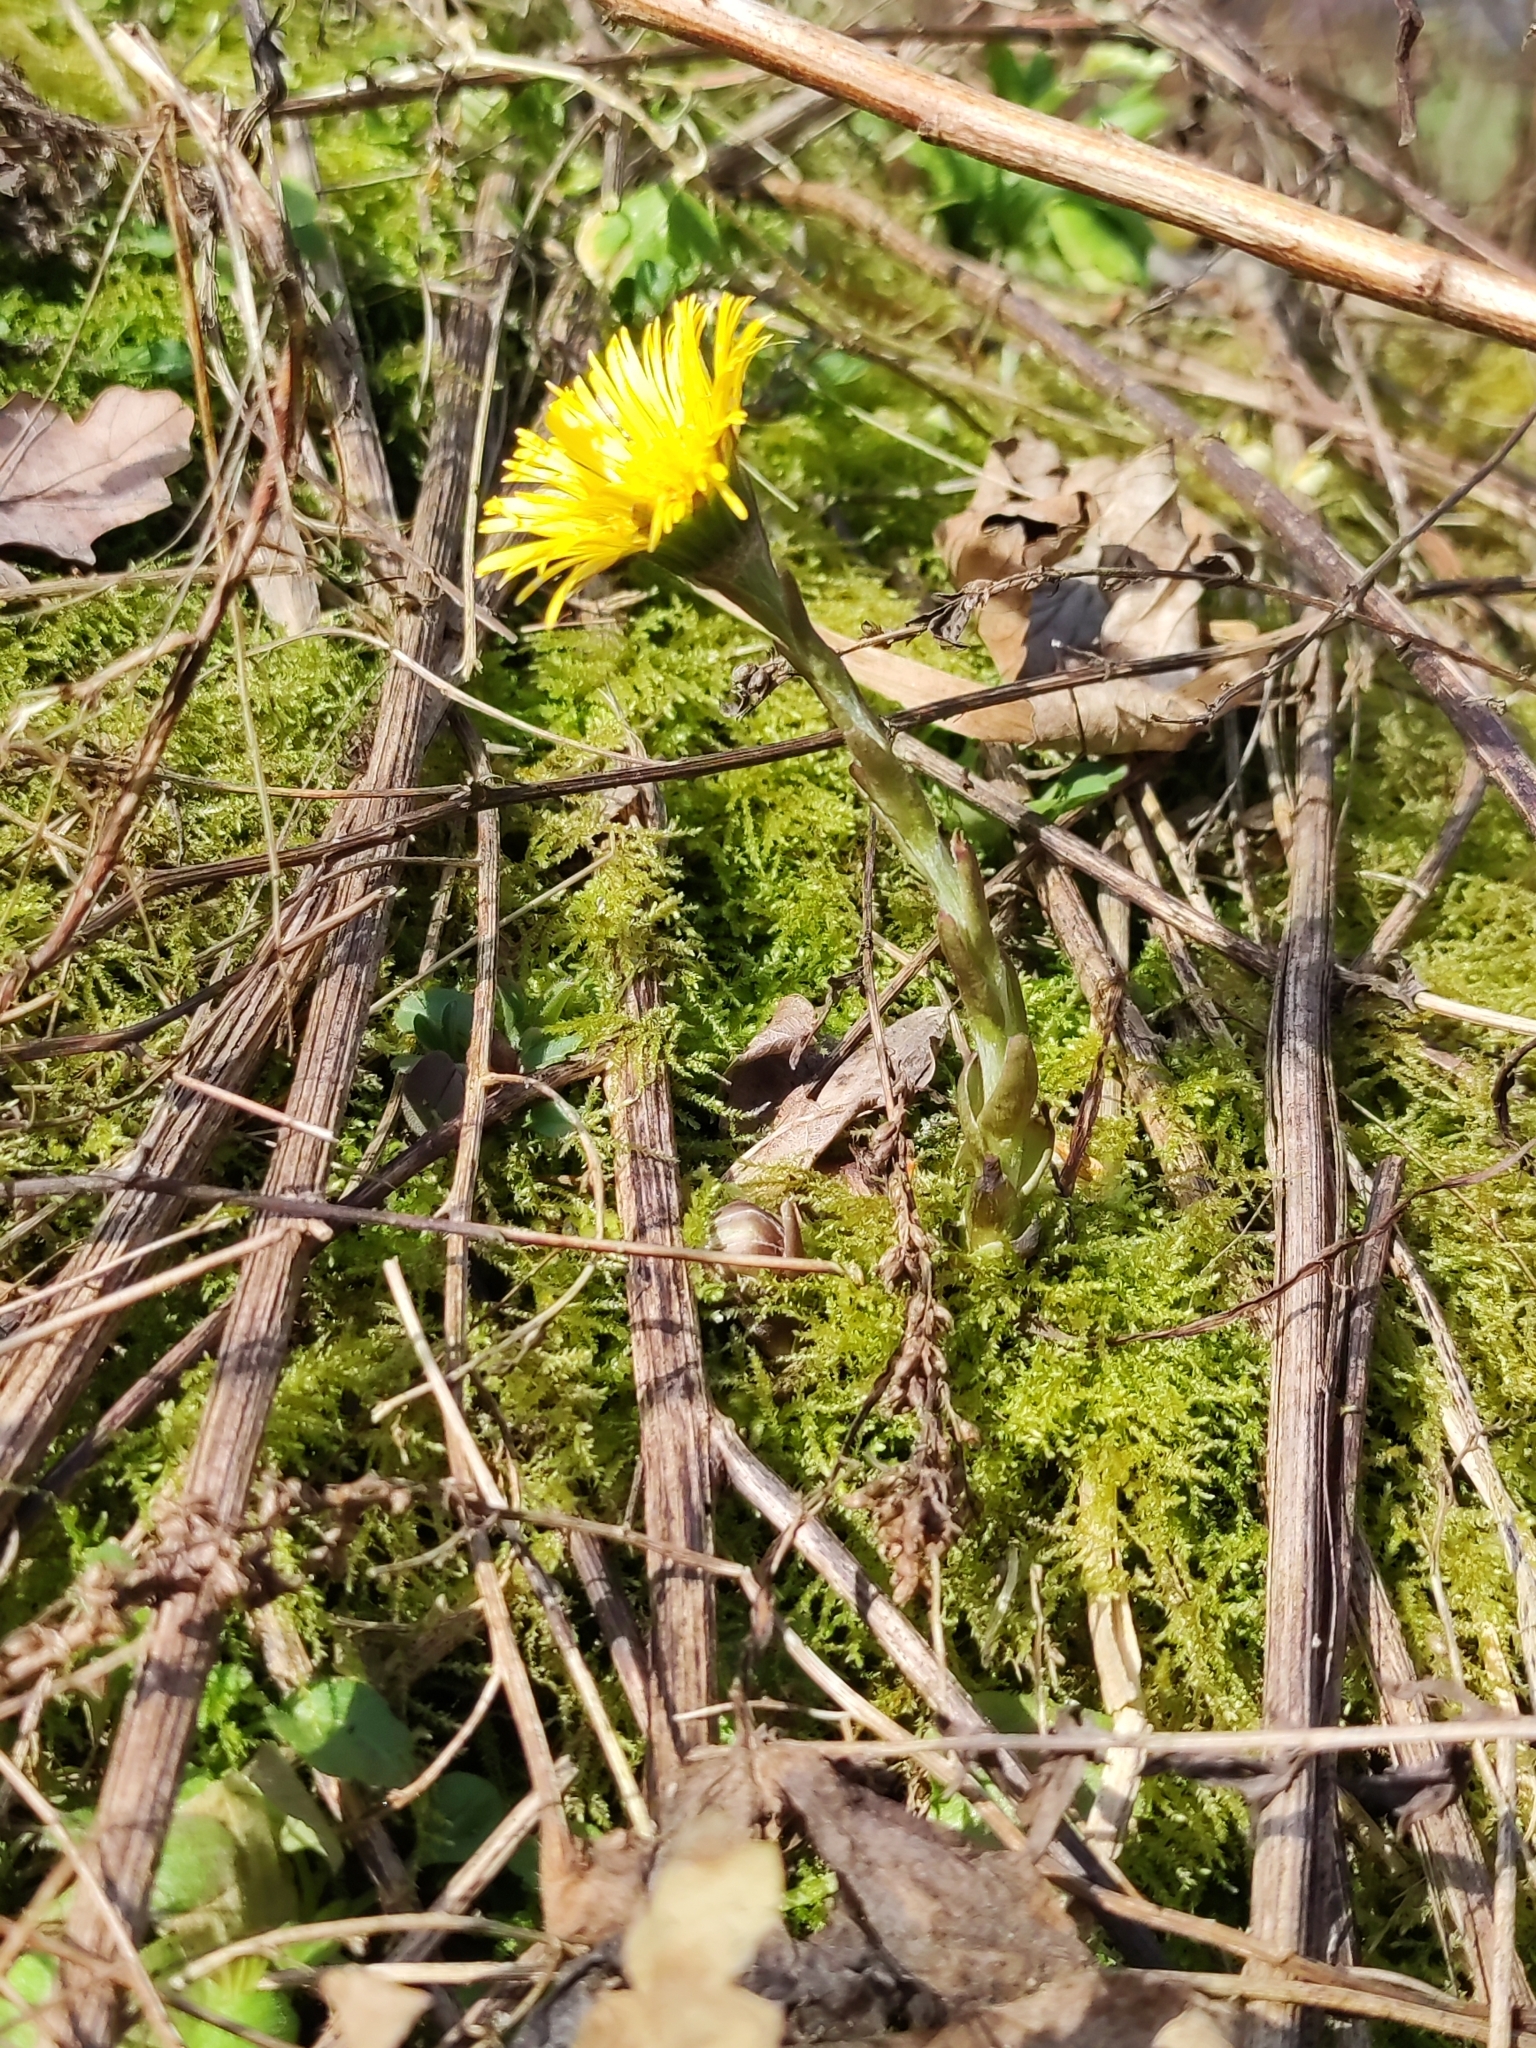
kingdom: Plantae
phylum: Tracheophyta
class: Magnoliopsida
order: Asterales
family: Asteraceae
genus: Tussilago
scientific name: Tussilago farfara
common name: Coltsfoot
